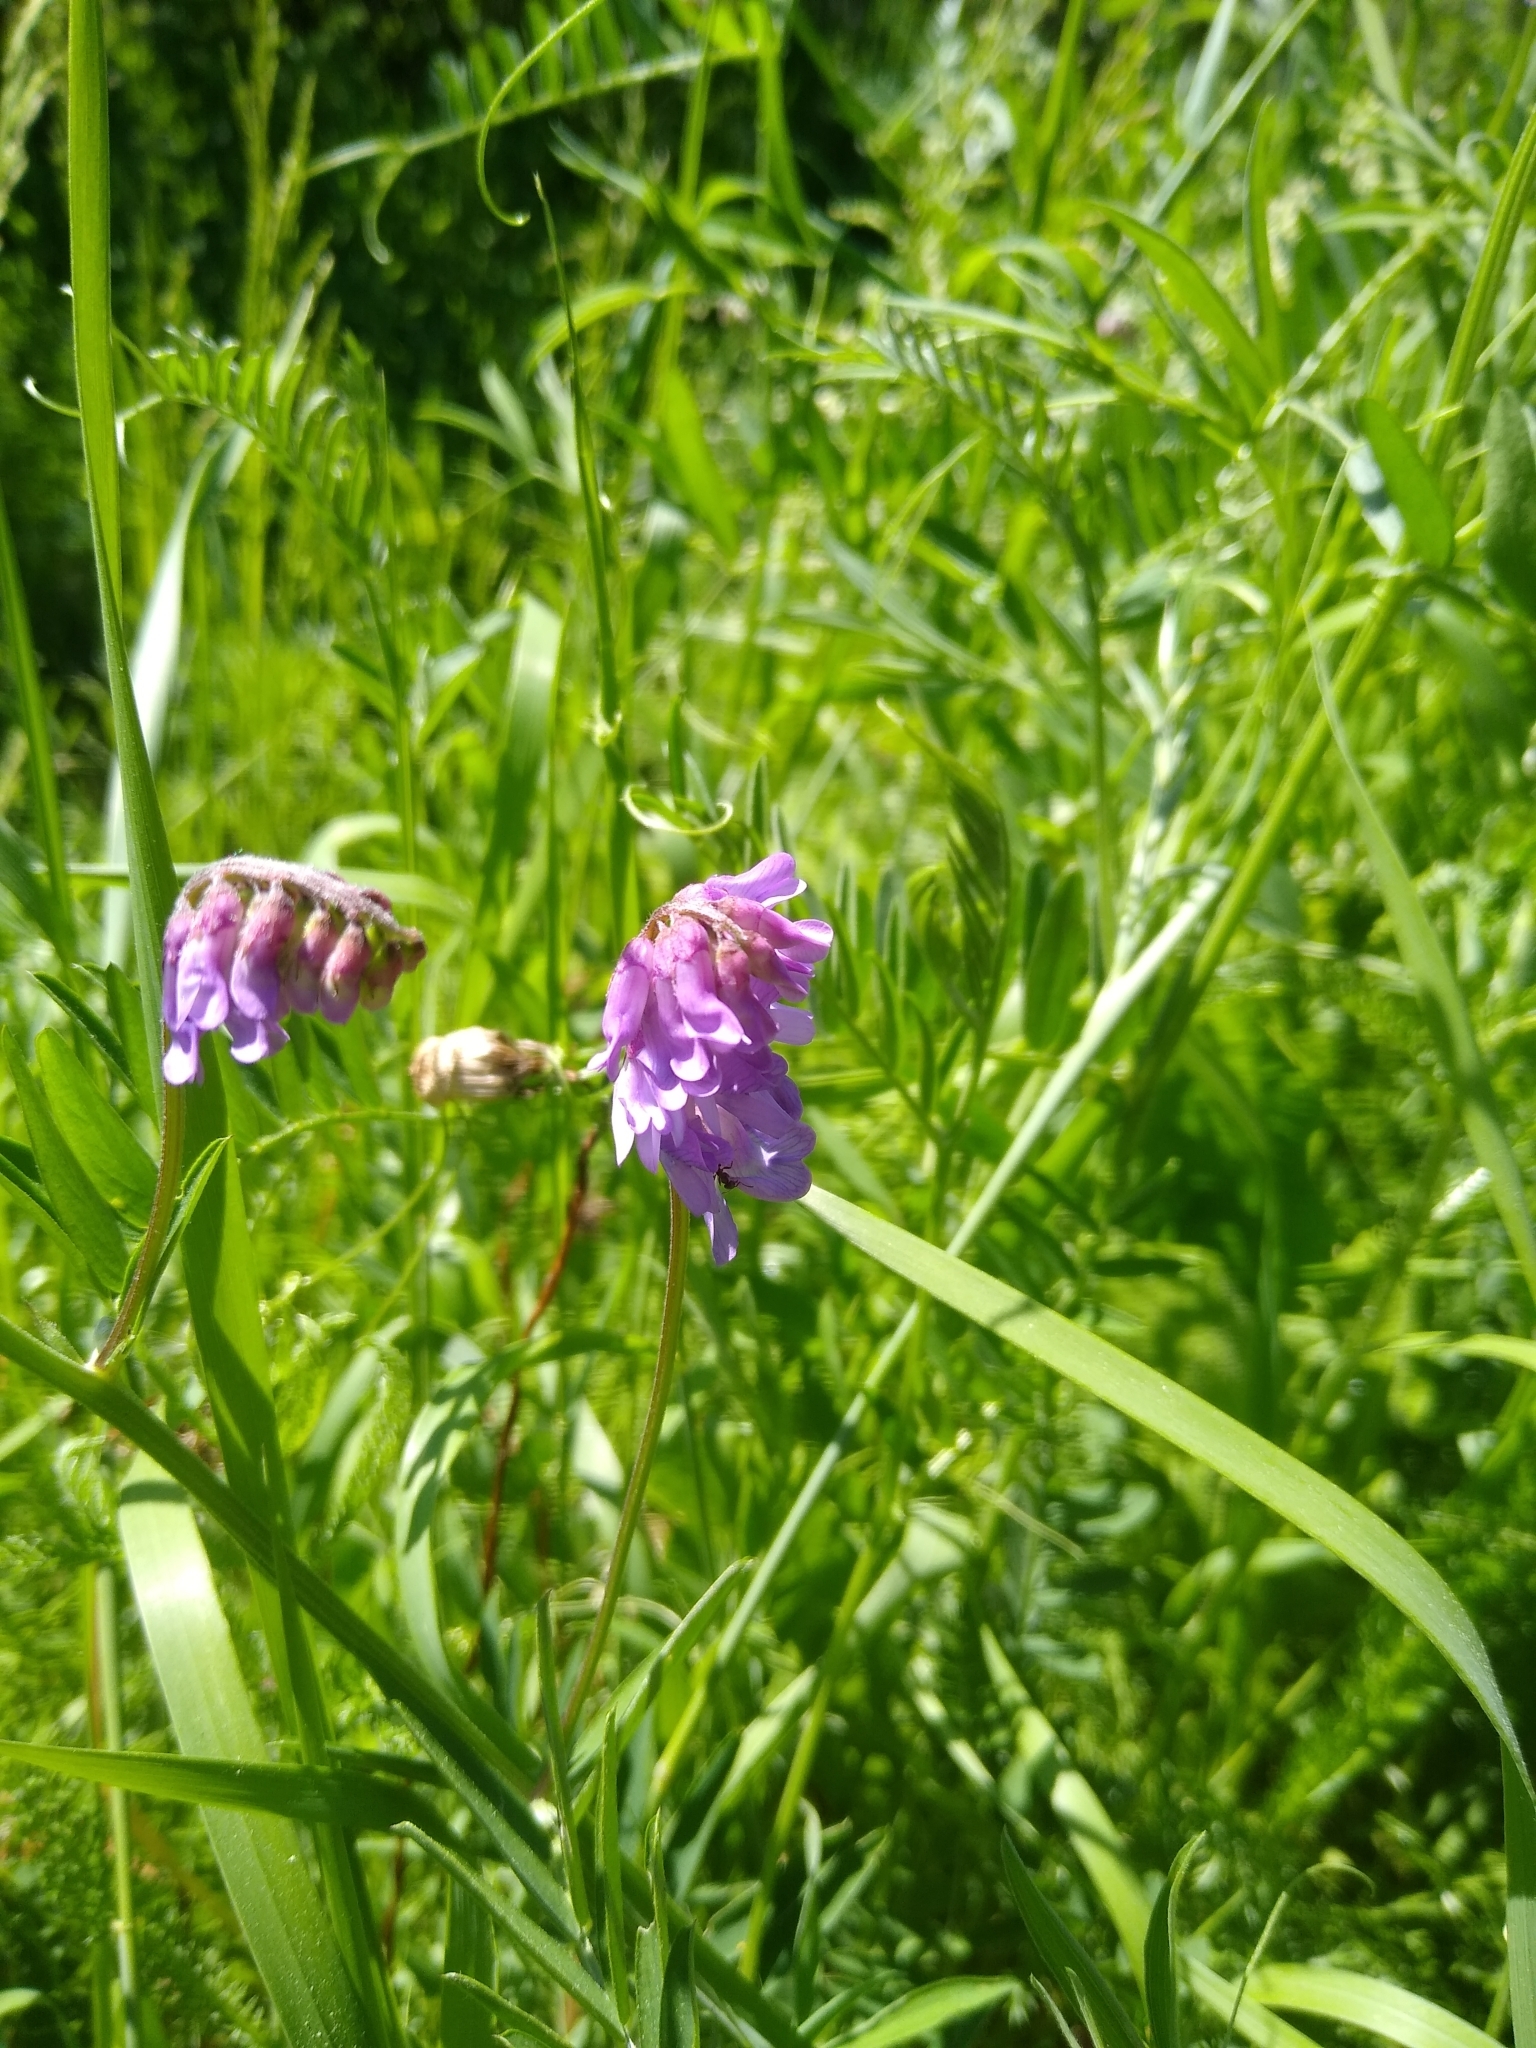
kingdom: Plantae
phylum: Tracheophyta
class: Magnoliopsida
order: Fabales
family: Fabaceae
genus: Vicia
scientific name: Vicia cracca
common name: Bird vetch
